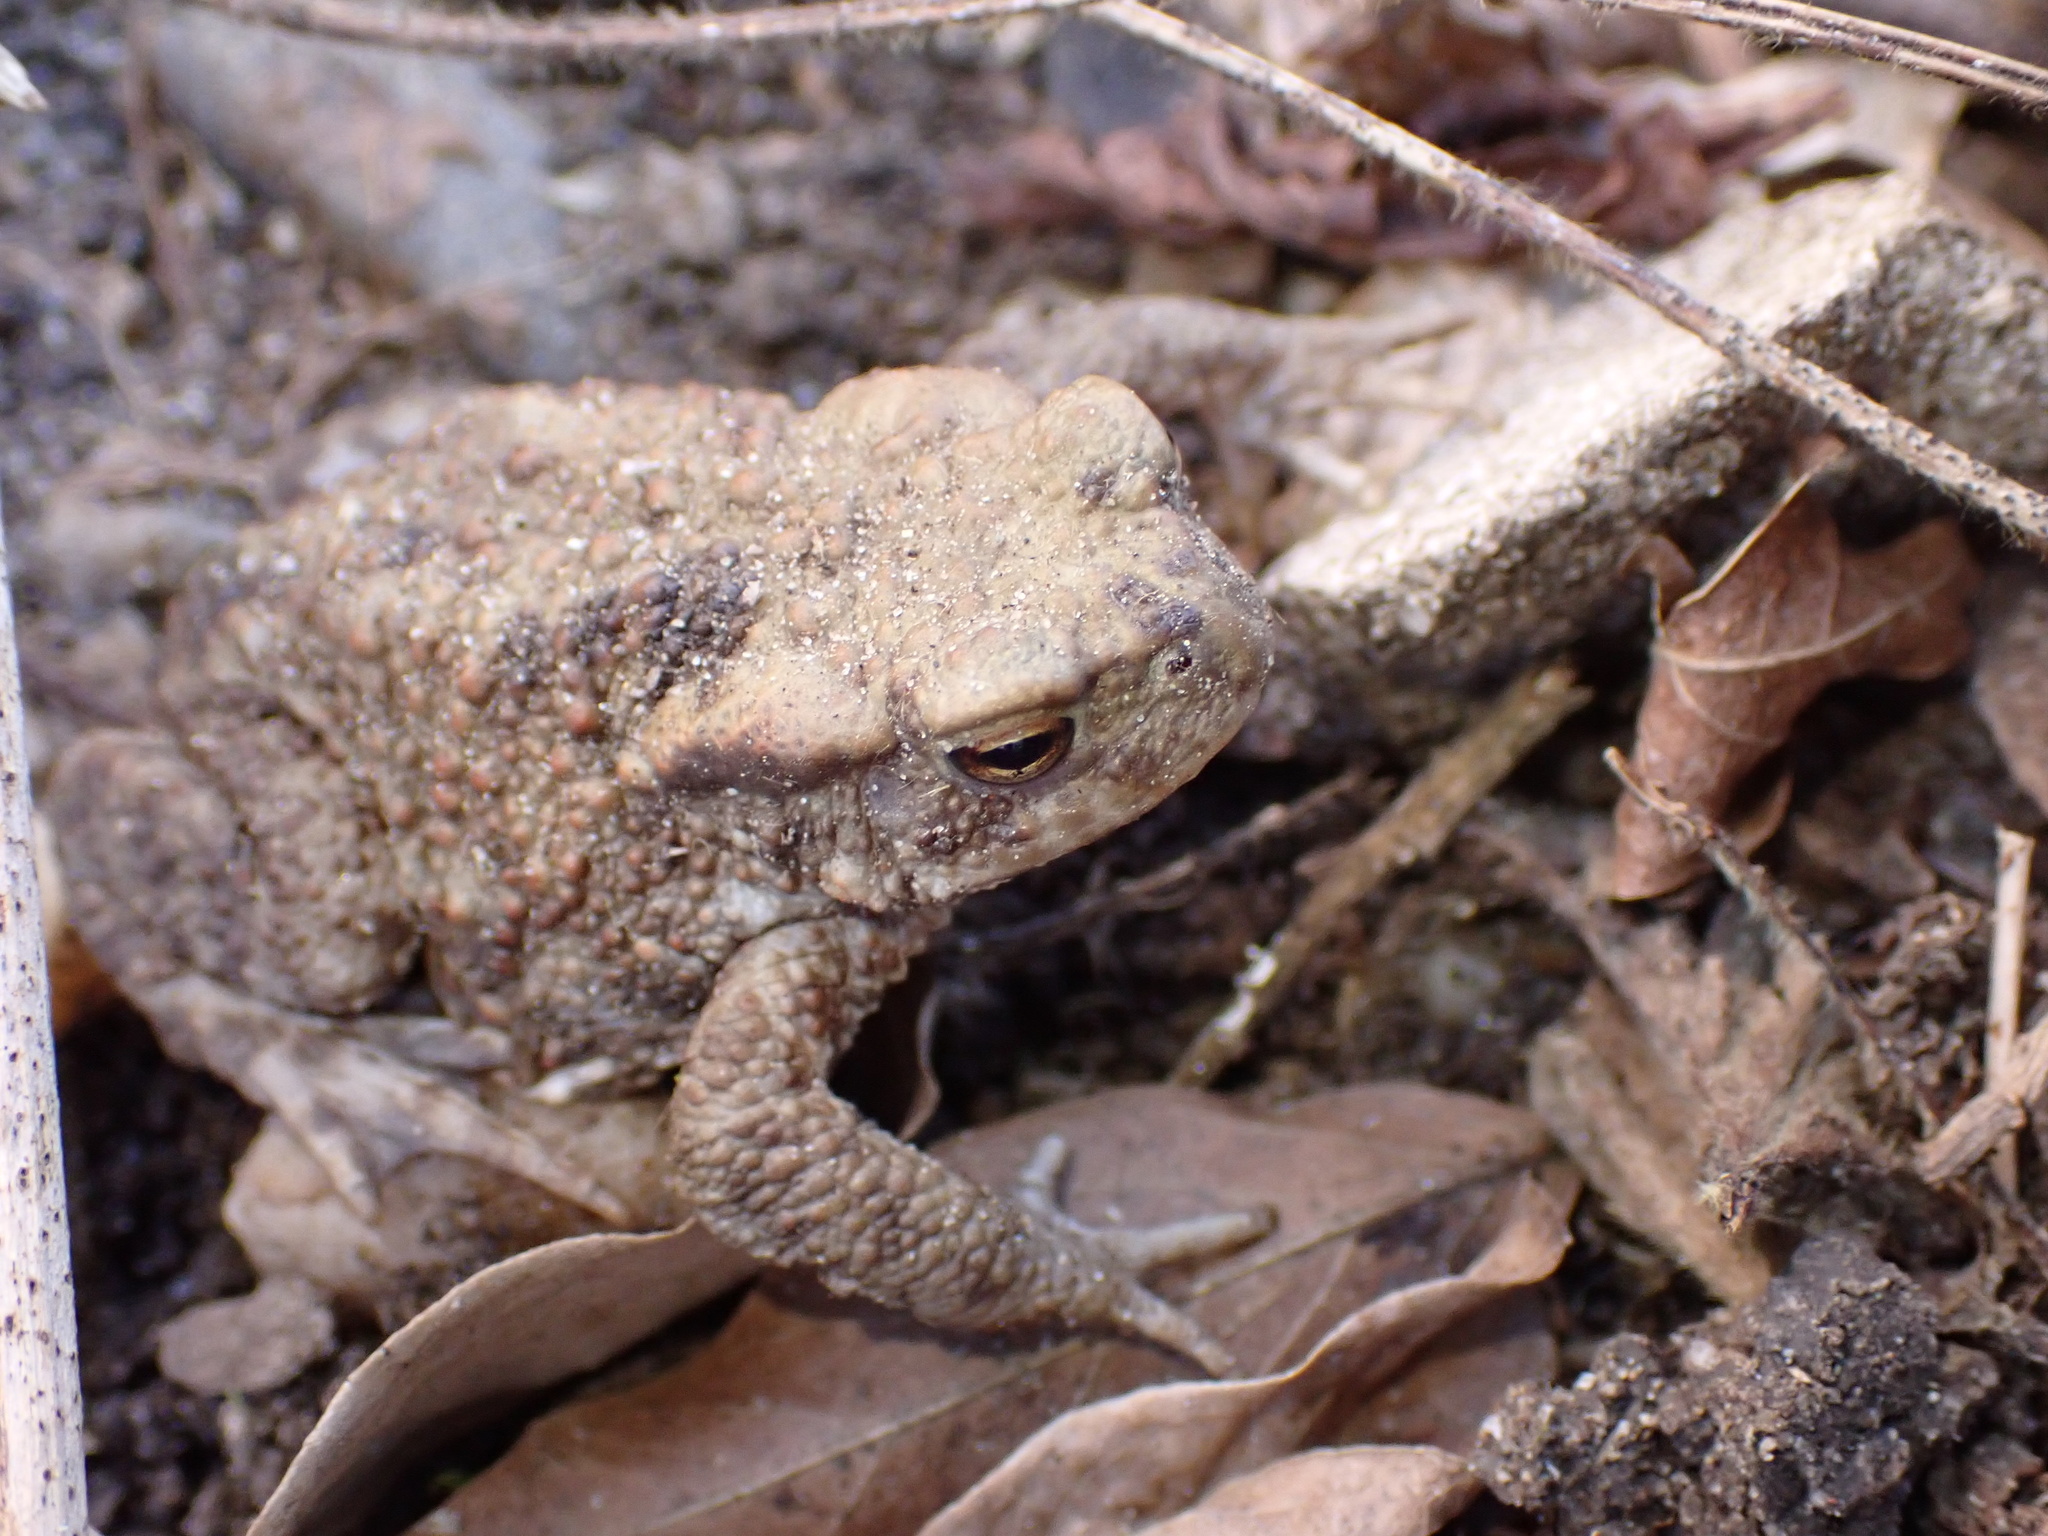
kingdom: Animalia
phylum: Chordata
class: Amphibia
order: Anura
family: Bufonidae
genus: Bufo
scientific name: Bufo bufo
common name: Common toad
